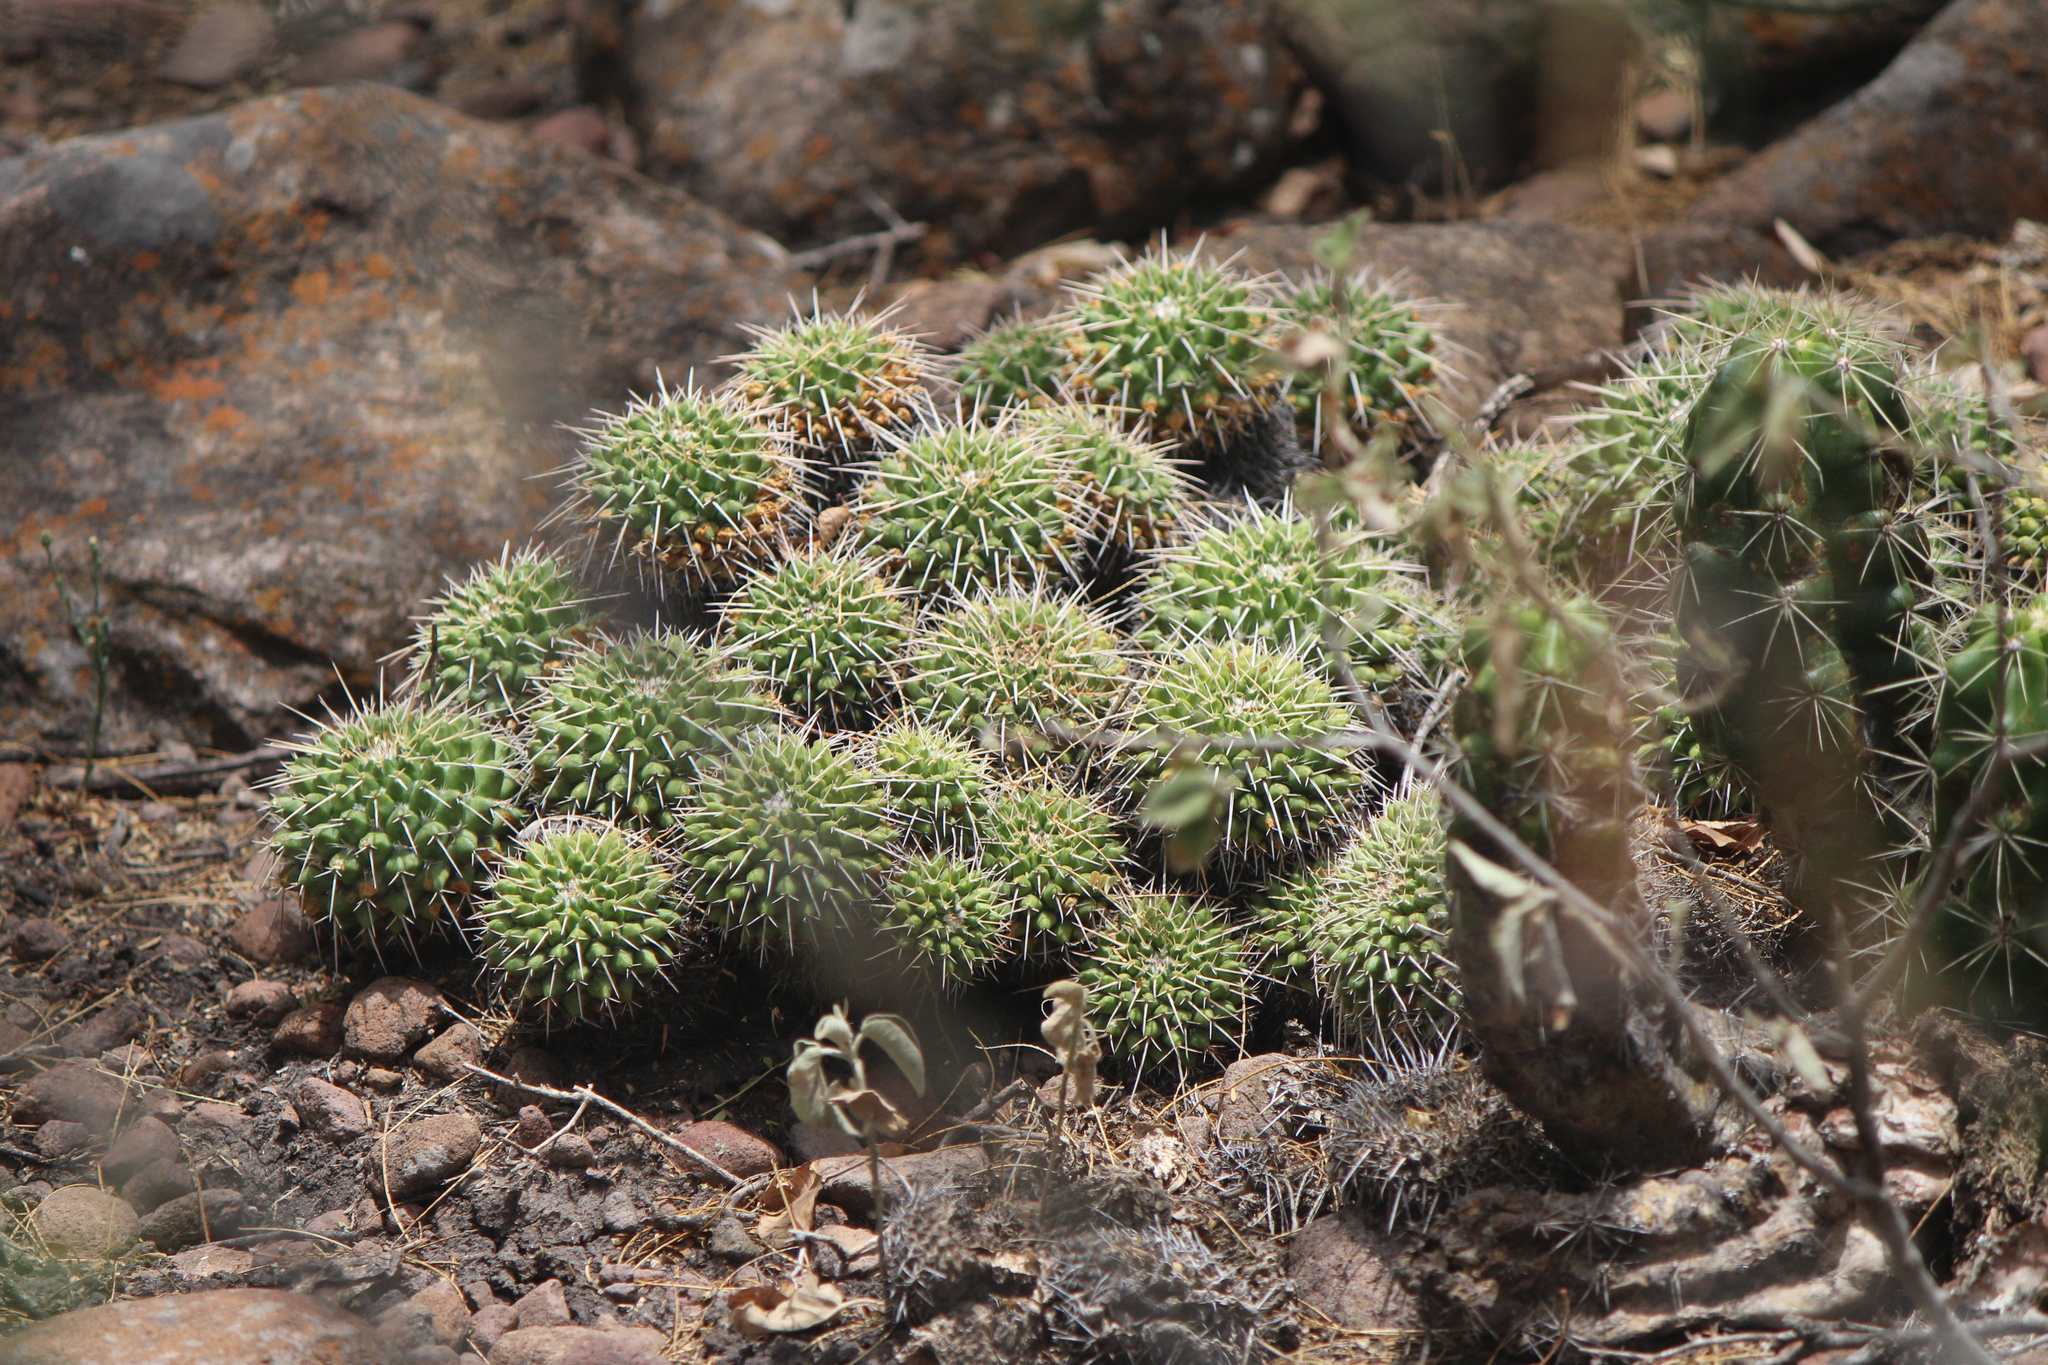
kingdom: Plantae
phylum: Tracheophyta
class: Magnoliopsida
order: Caryophyllales
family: Cactaceae
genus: Mammillaria
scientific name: Mammillaria compressa
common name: Mother-of-hundreds
